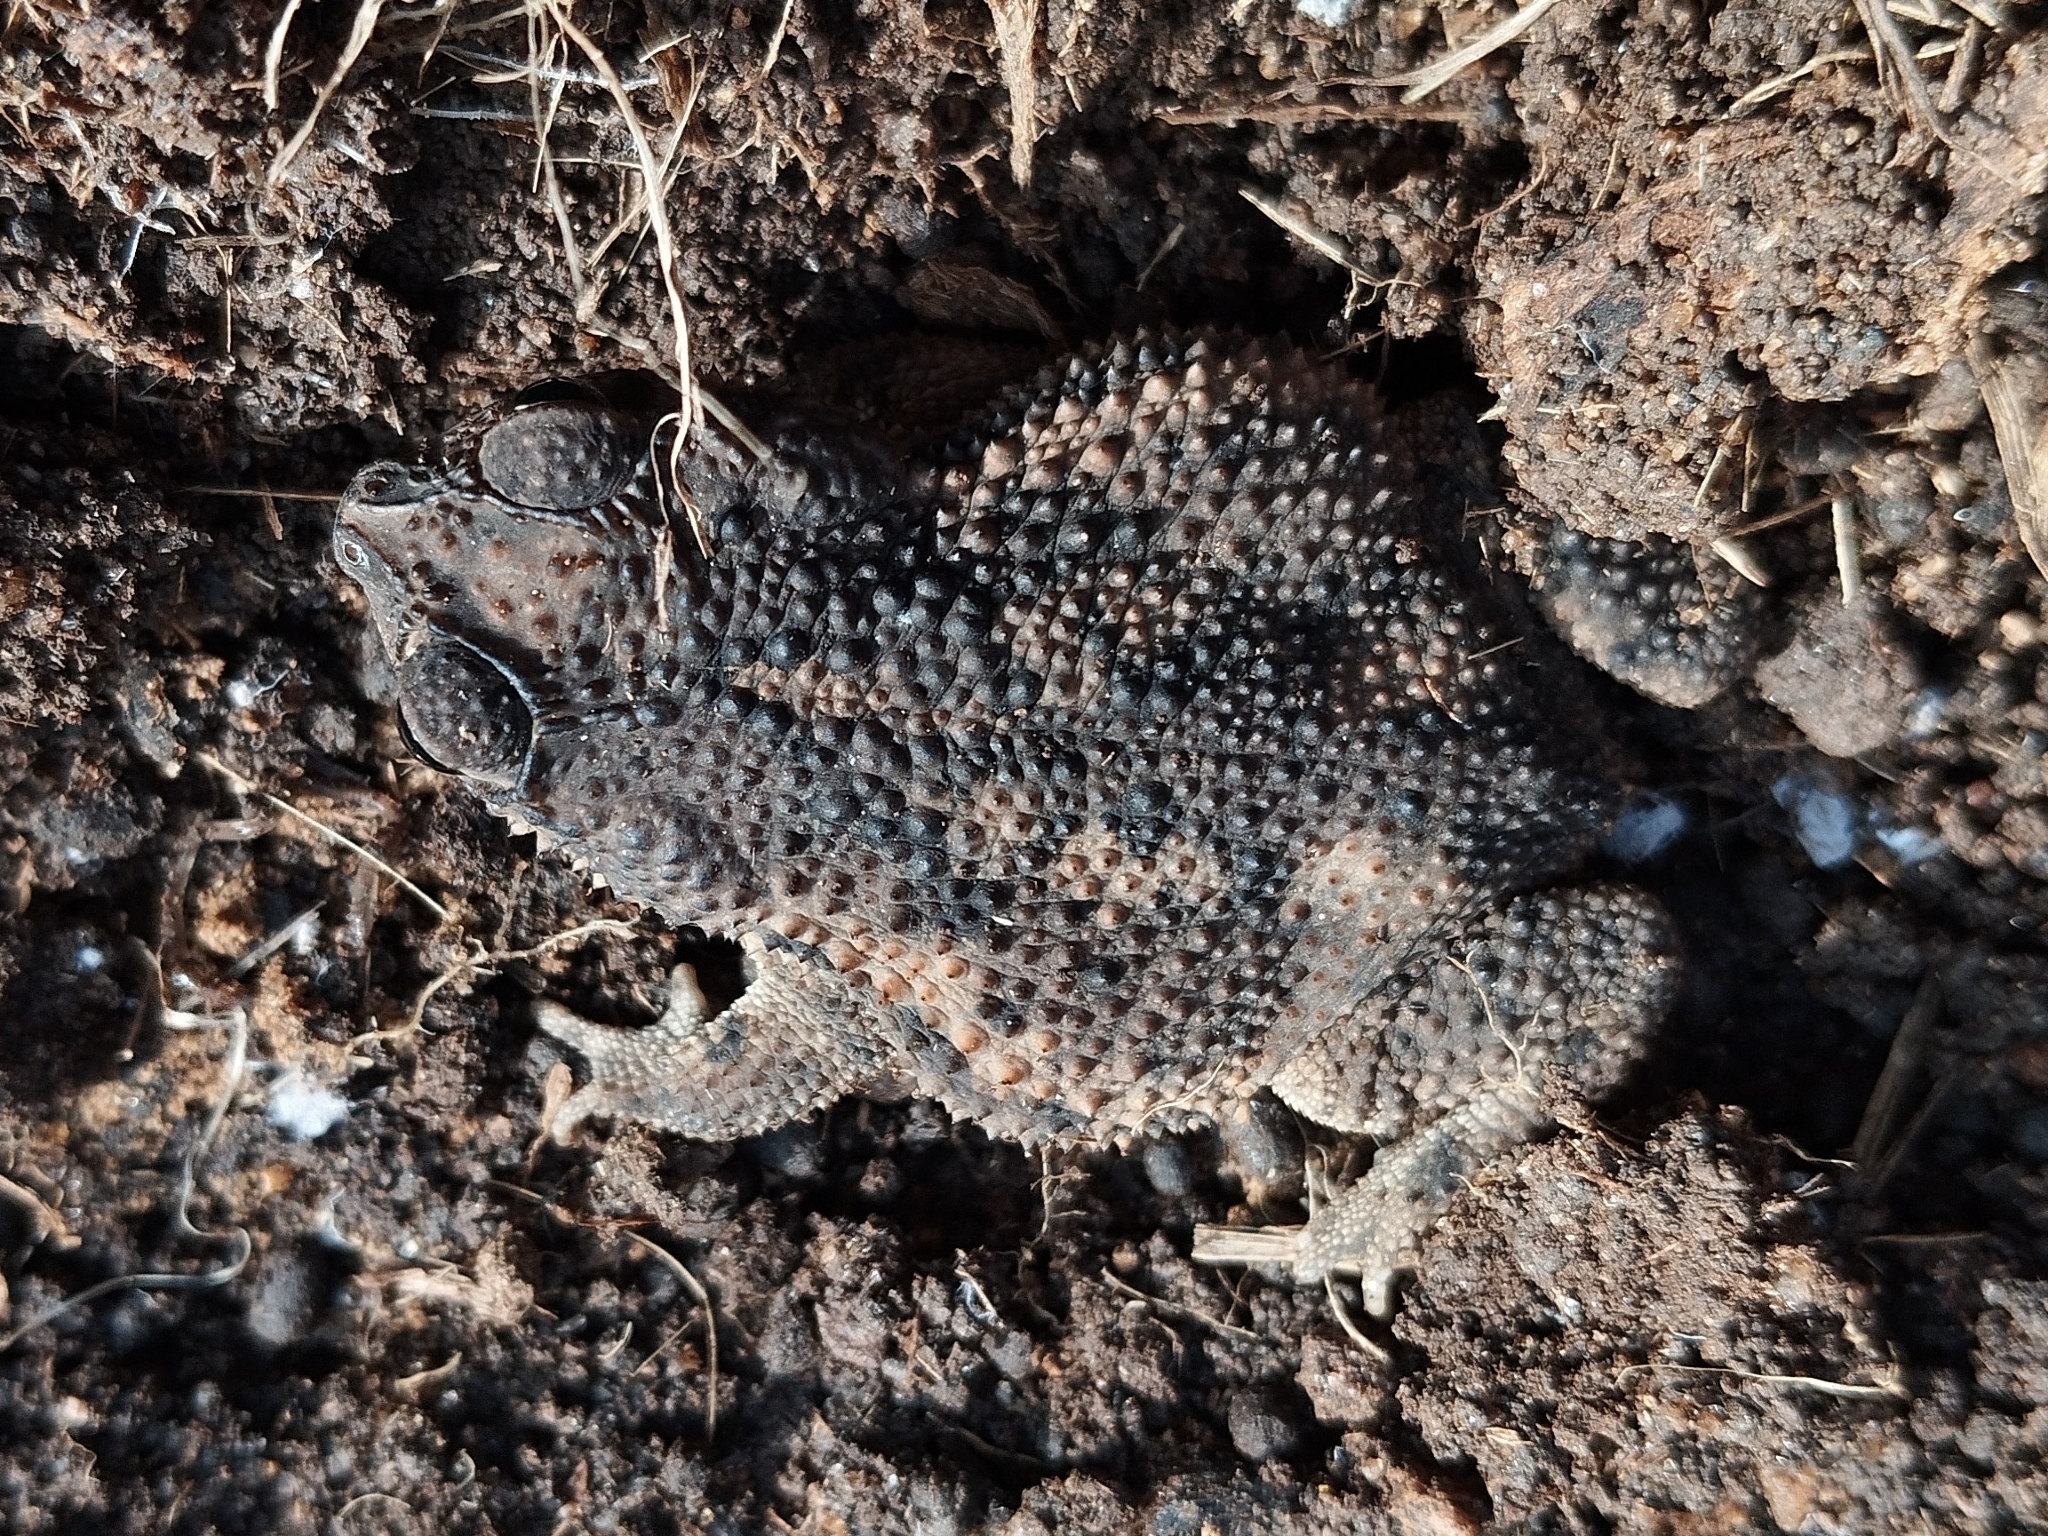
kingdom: Animalia
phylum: Chordata
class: Amphibia
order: Anura
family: Bufonidae
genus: Rhinella
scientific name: Rhinella pygmaea
